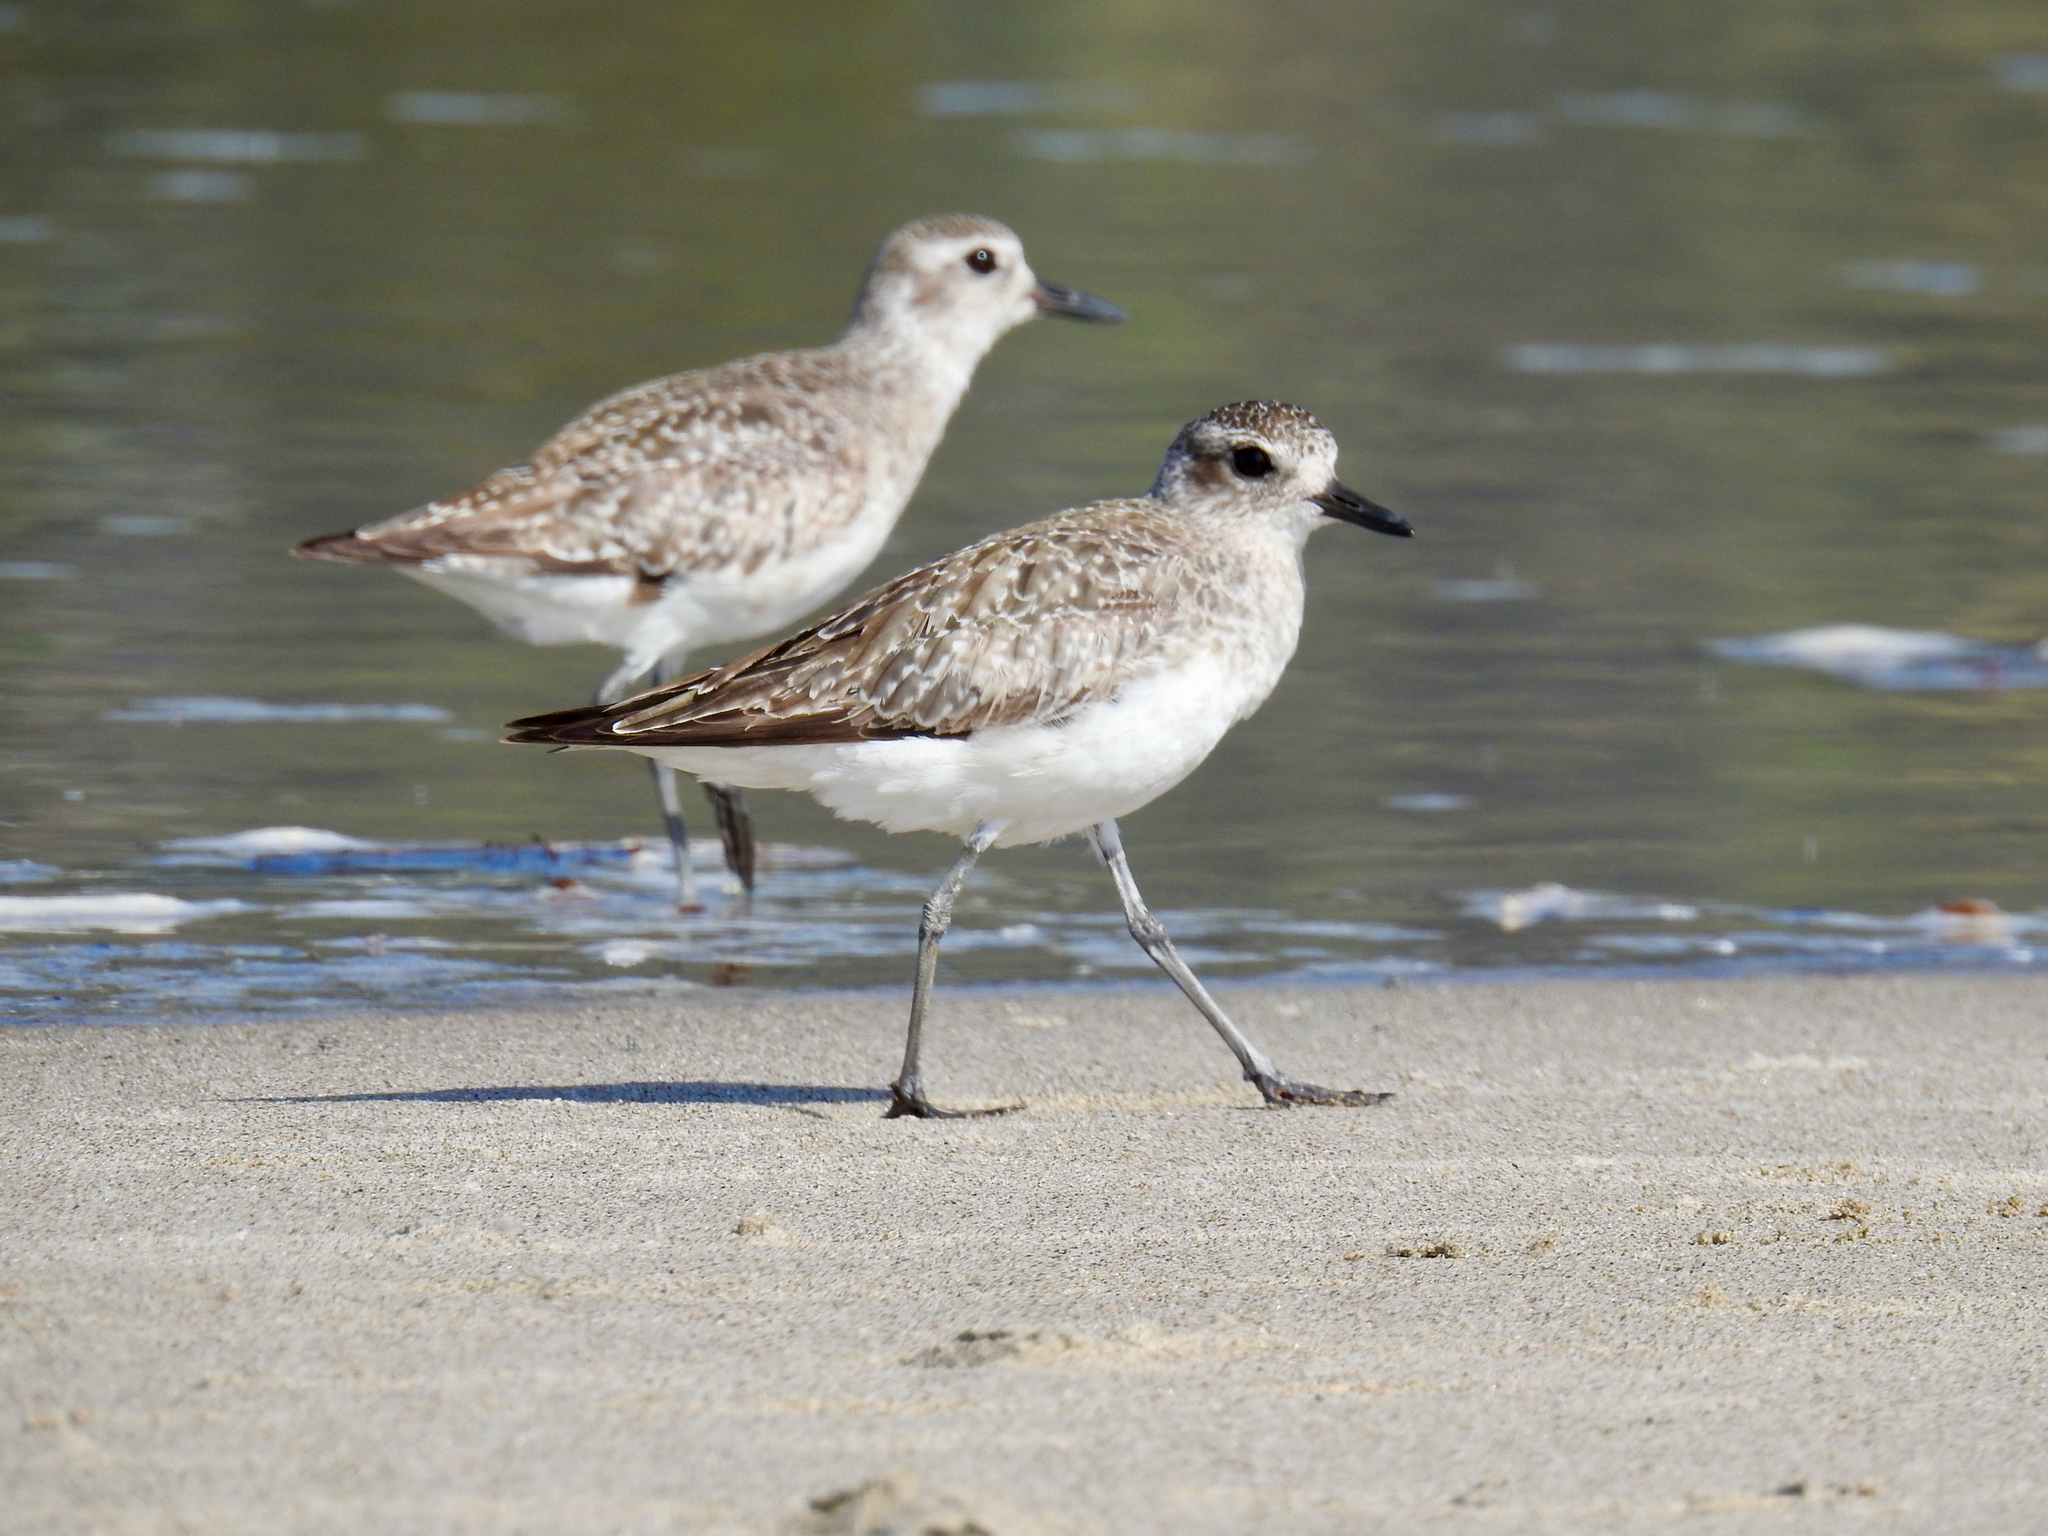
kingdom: Animalia
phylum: Chordata
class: Aves
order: Charadriiformes
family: Charadriidae
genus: Pluvialis
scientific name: Pluvialis squatarola
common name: Grey plover
